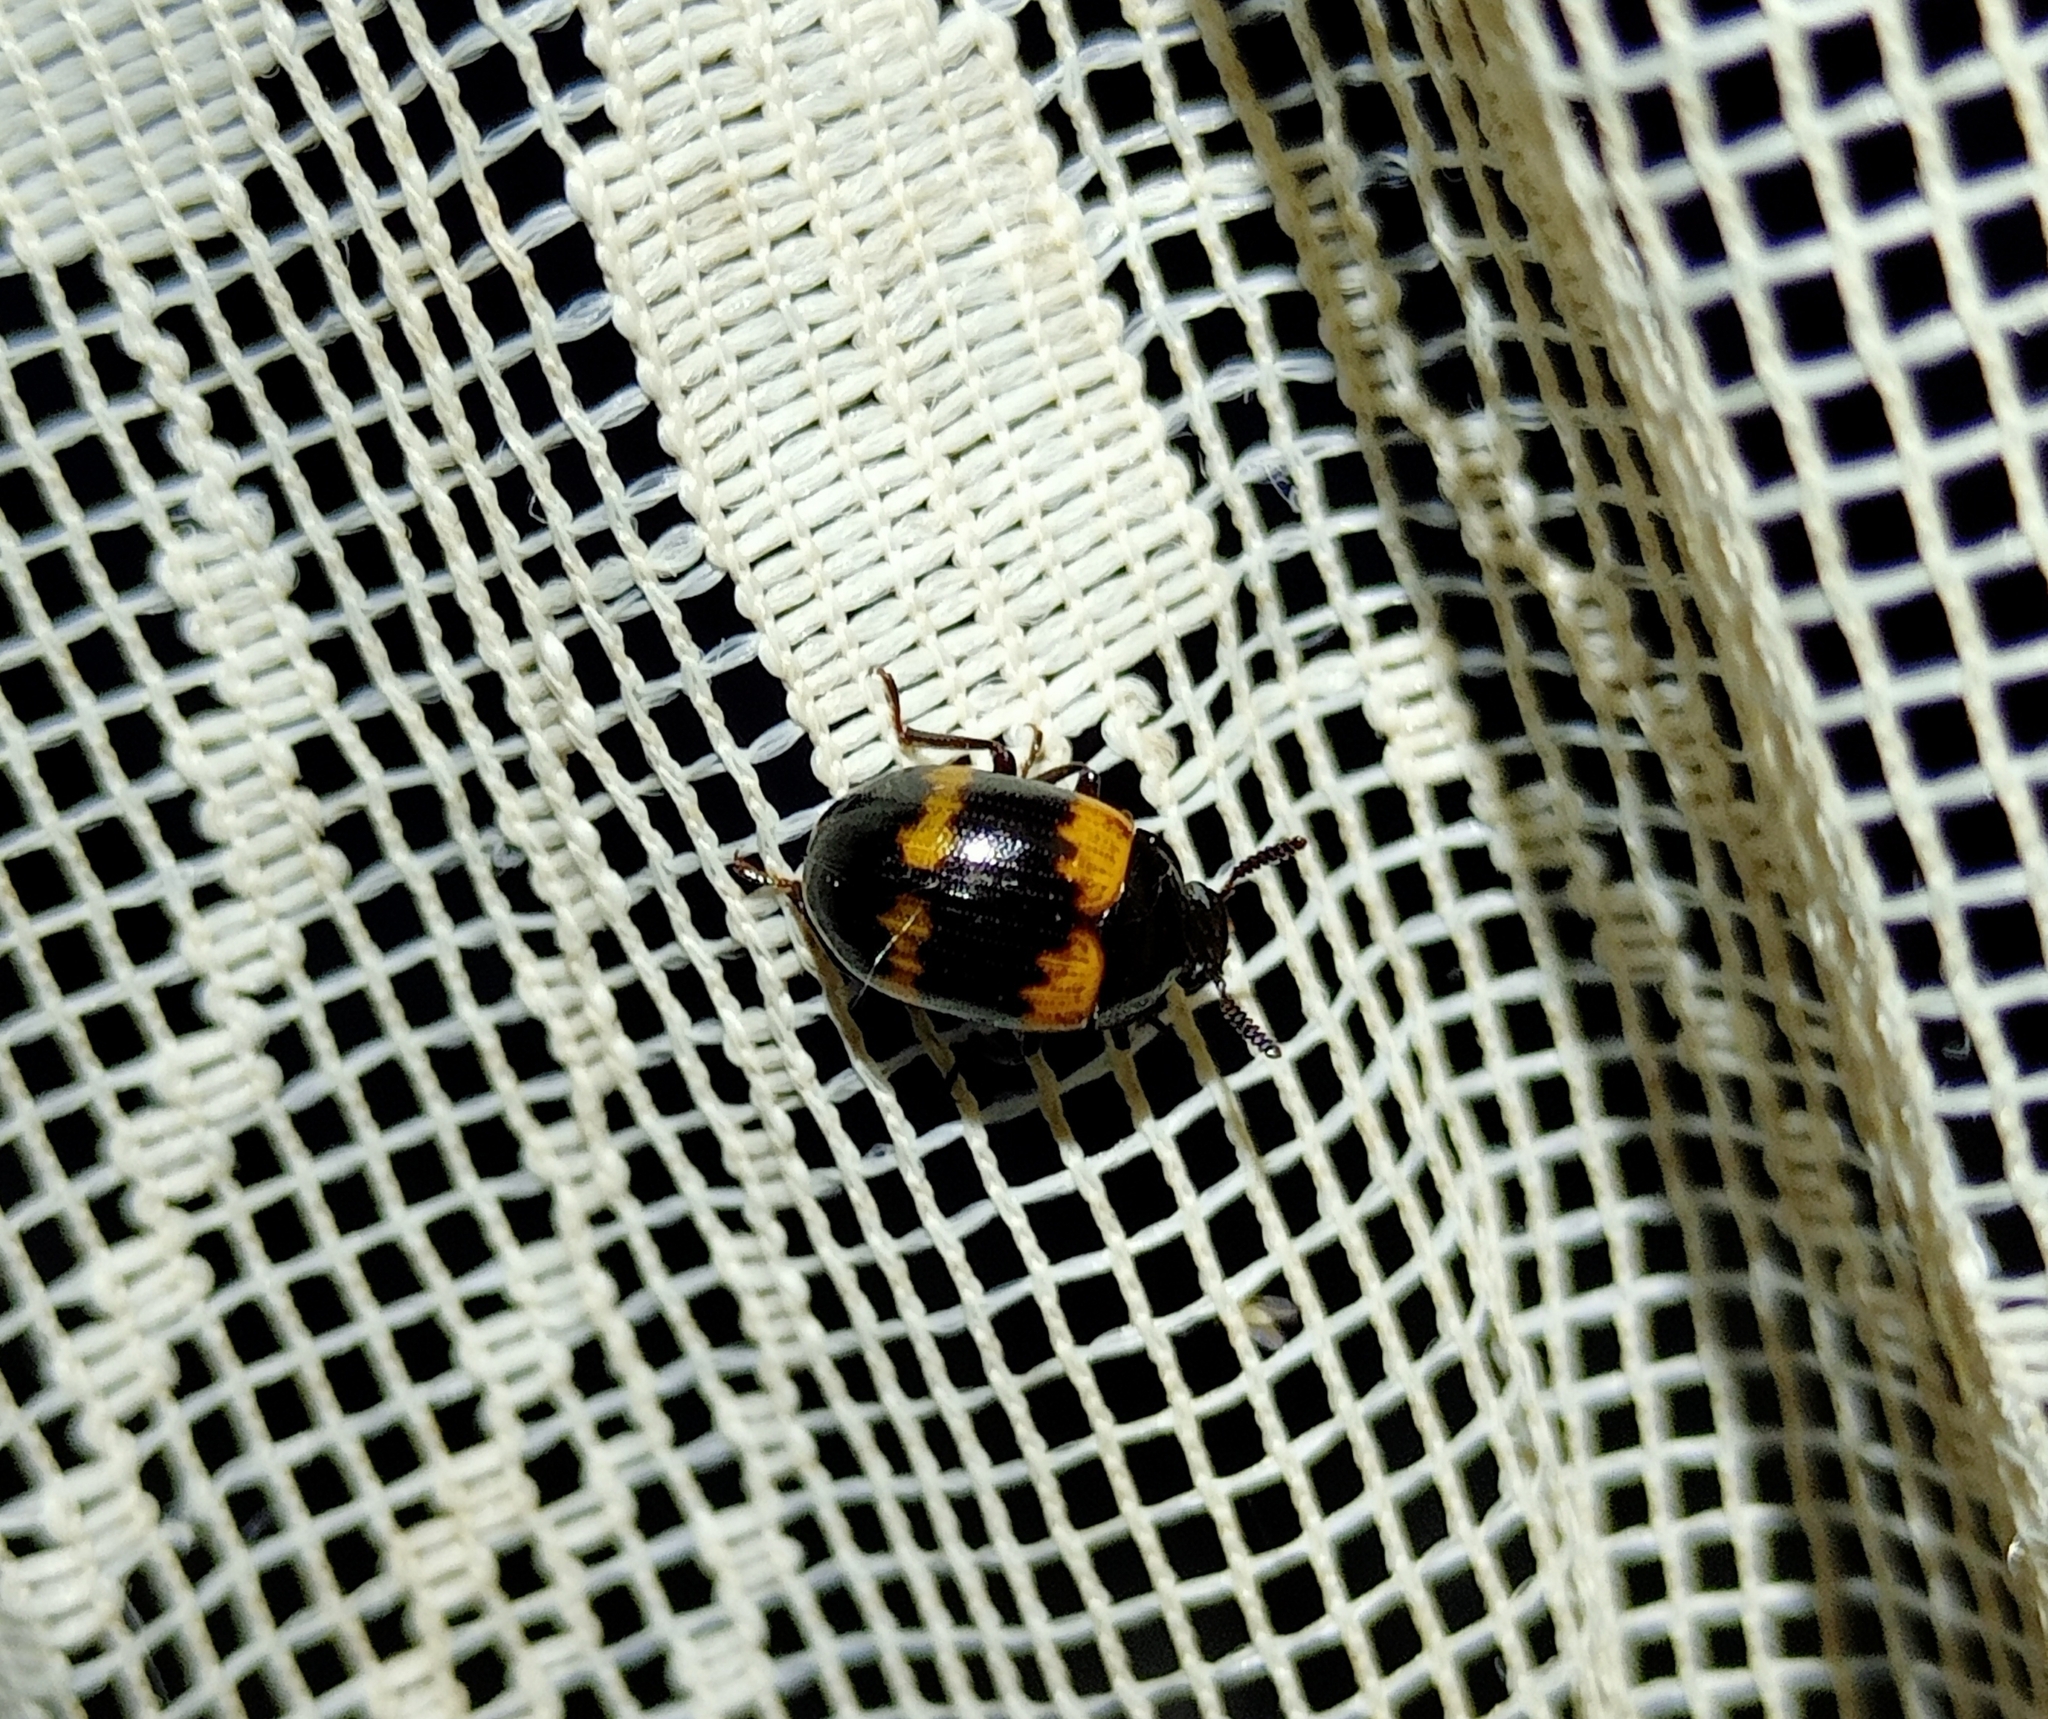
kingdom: Animalia
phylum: Arthropoda
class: Insecta
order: Coleoptera
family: Tenebrionidae
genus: Diaperis
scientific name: Diaperis boleti
